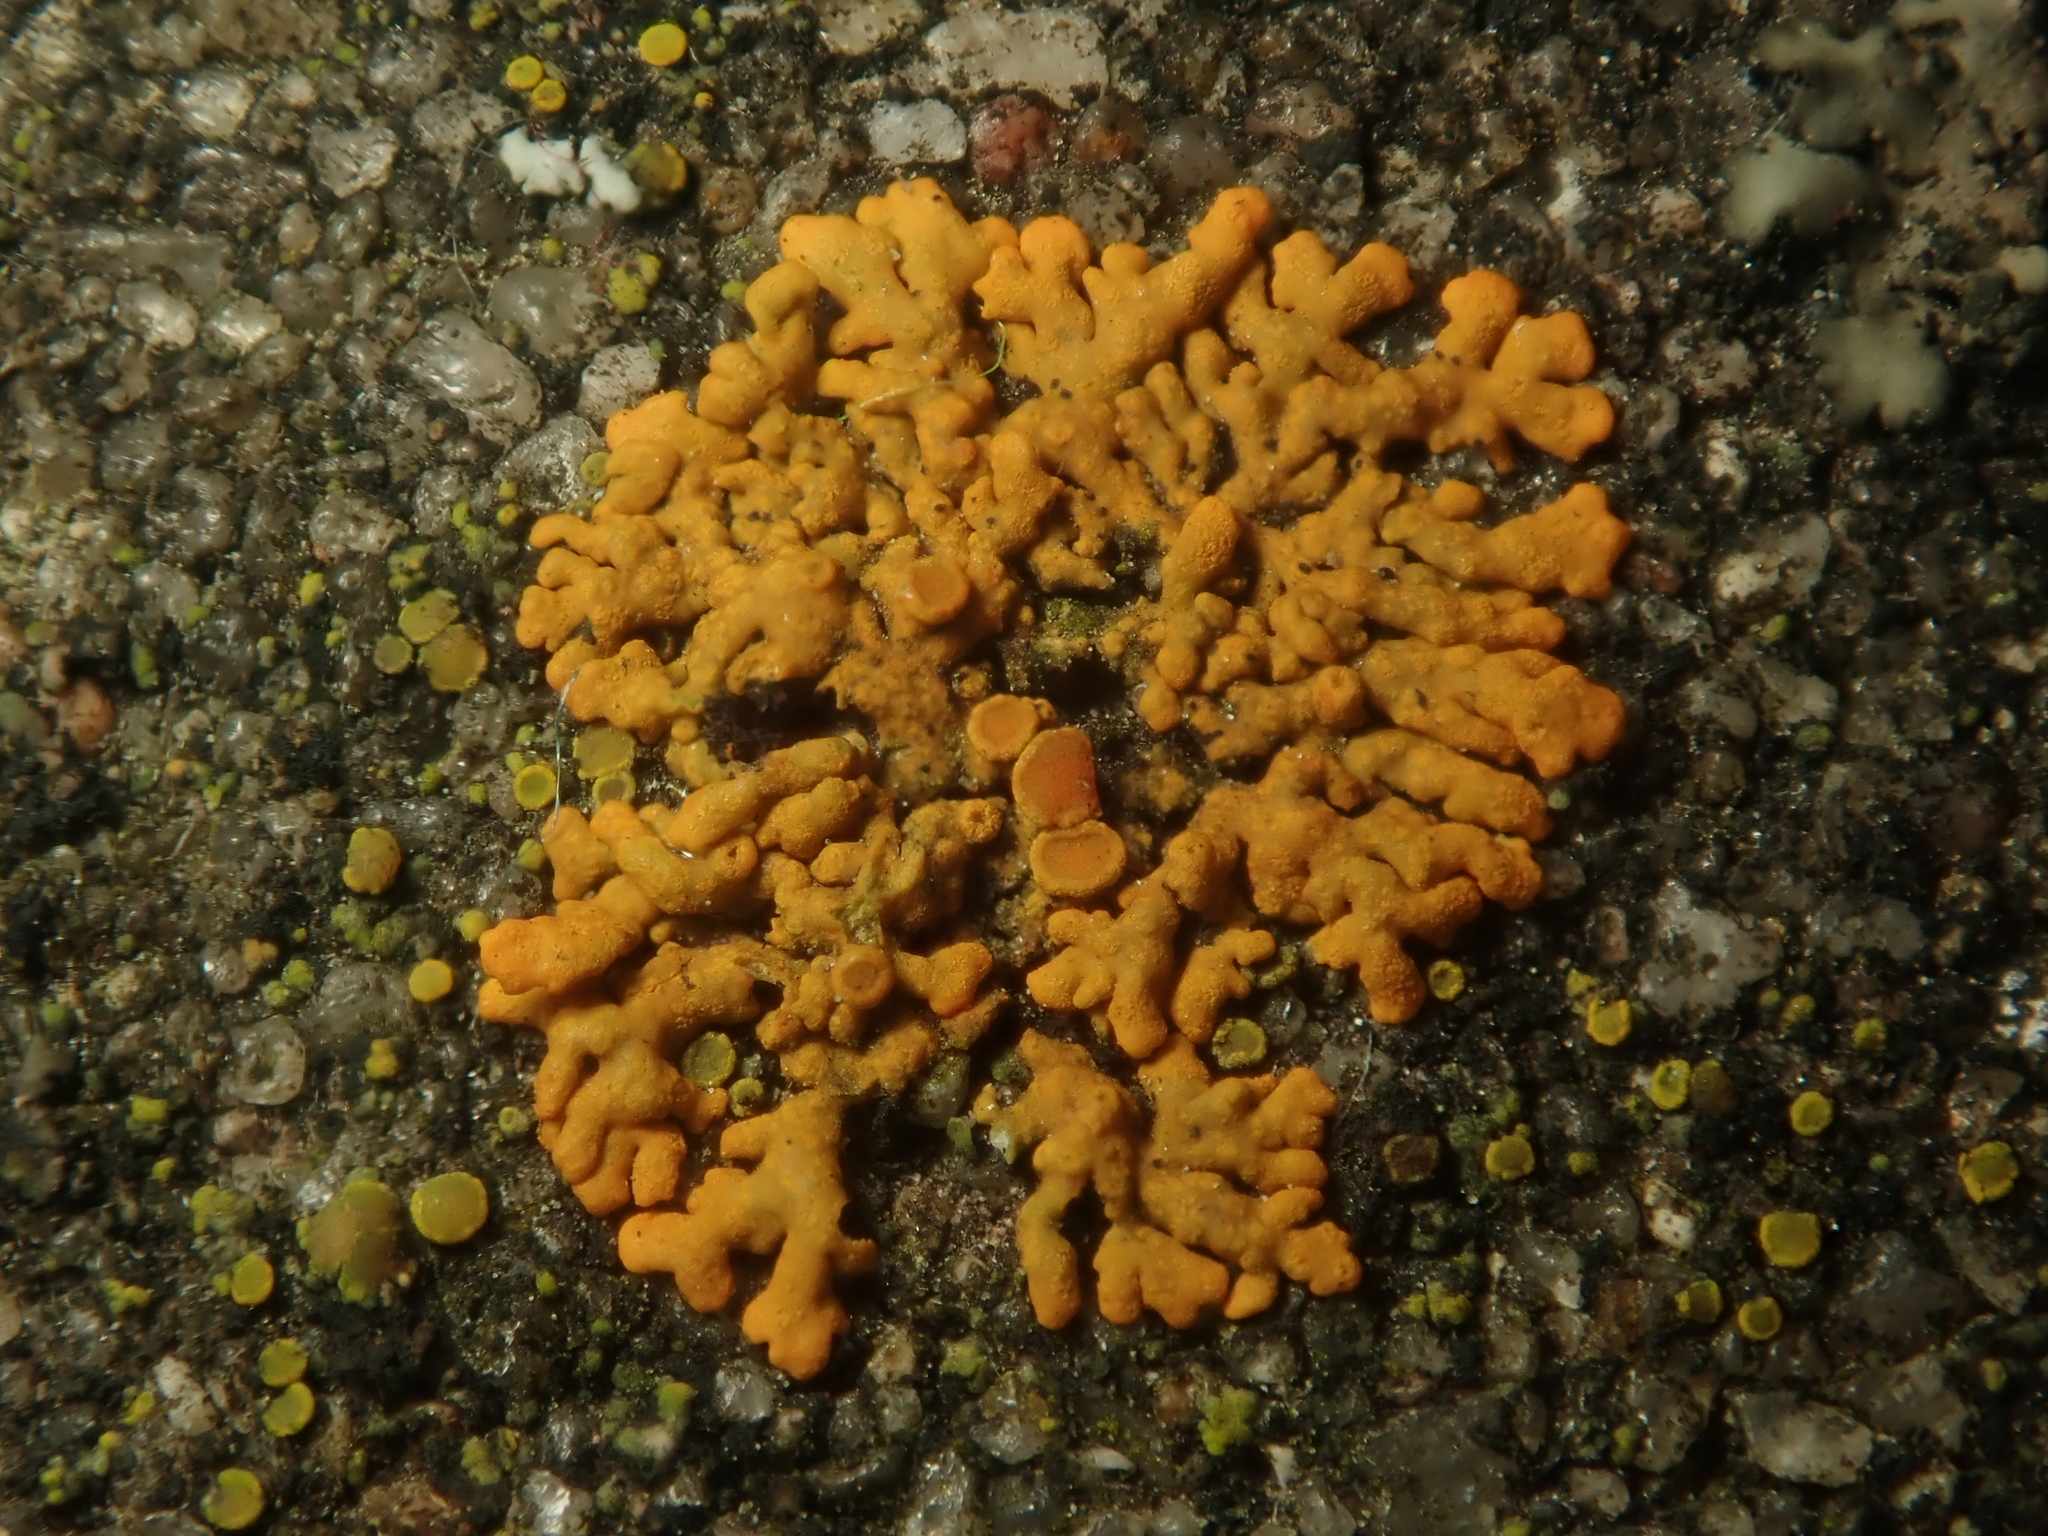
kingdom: Fungi
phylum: Ascomycota
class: Lecanoromycetes
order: Teloschistales
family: Teloschistaceae
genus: Xanthoria
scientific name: Xanthoria elegans
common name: Elegant sunburst lichen
